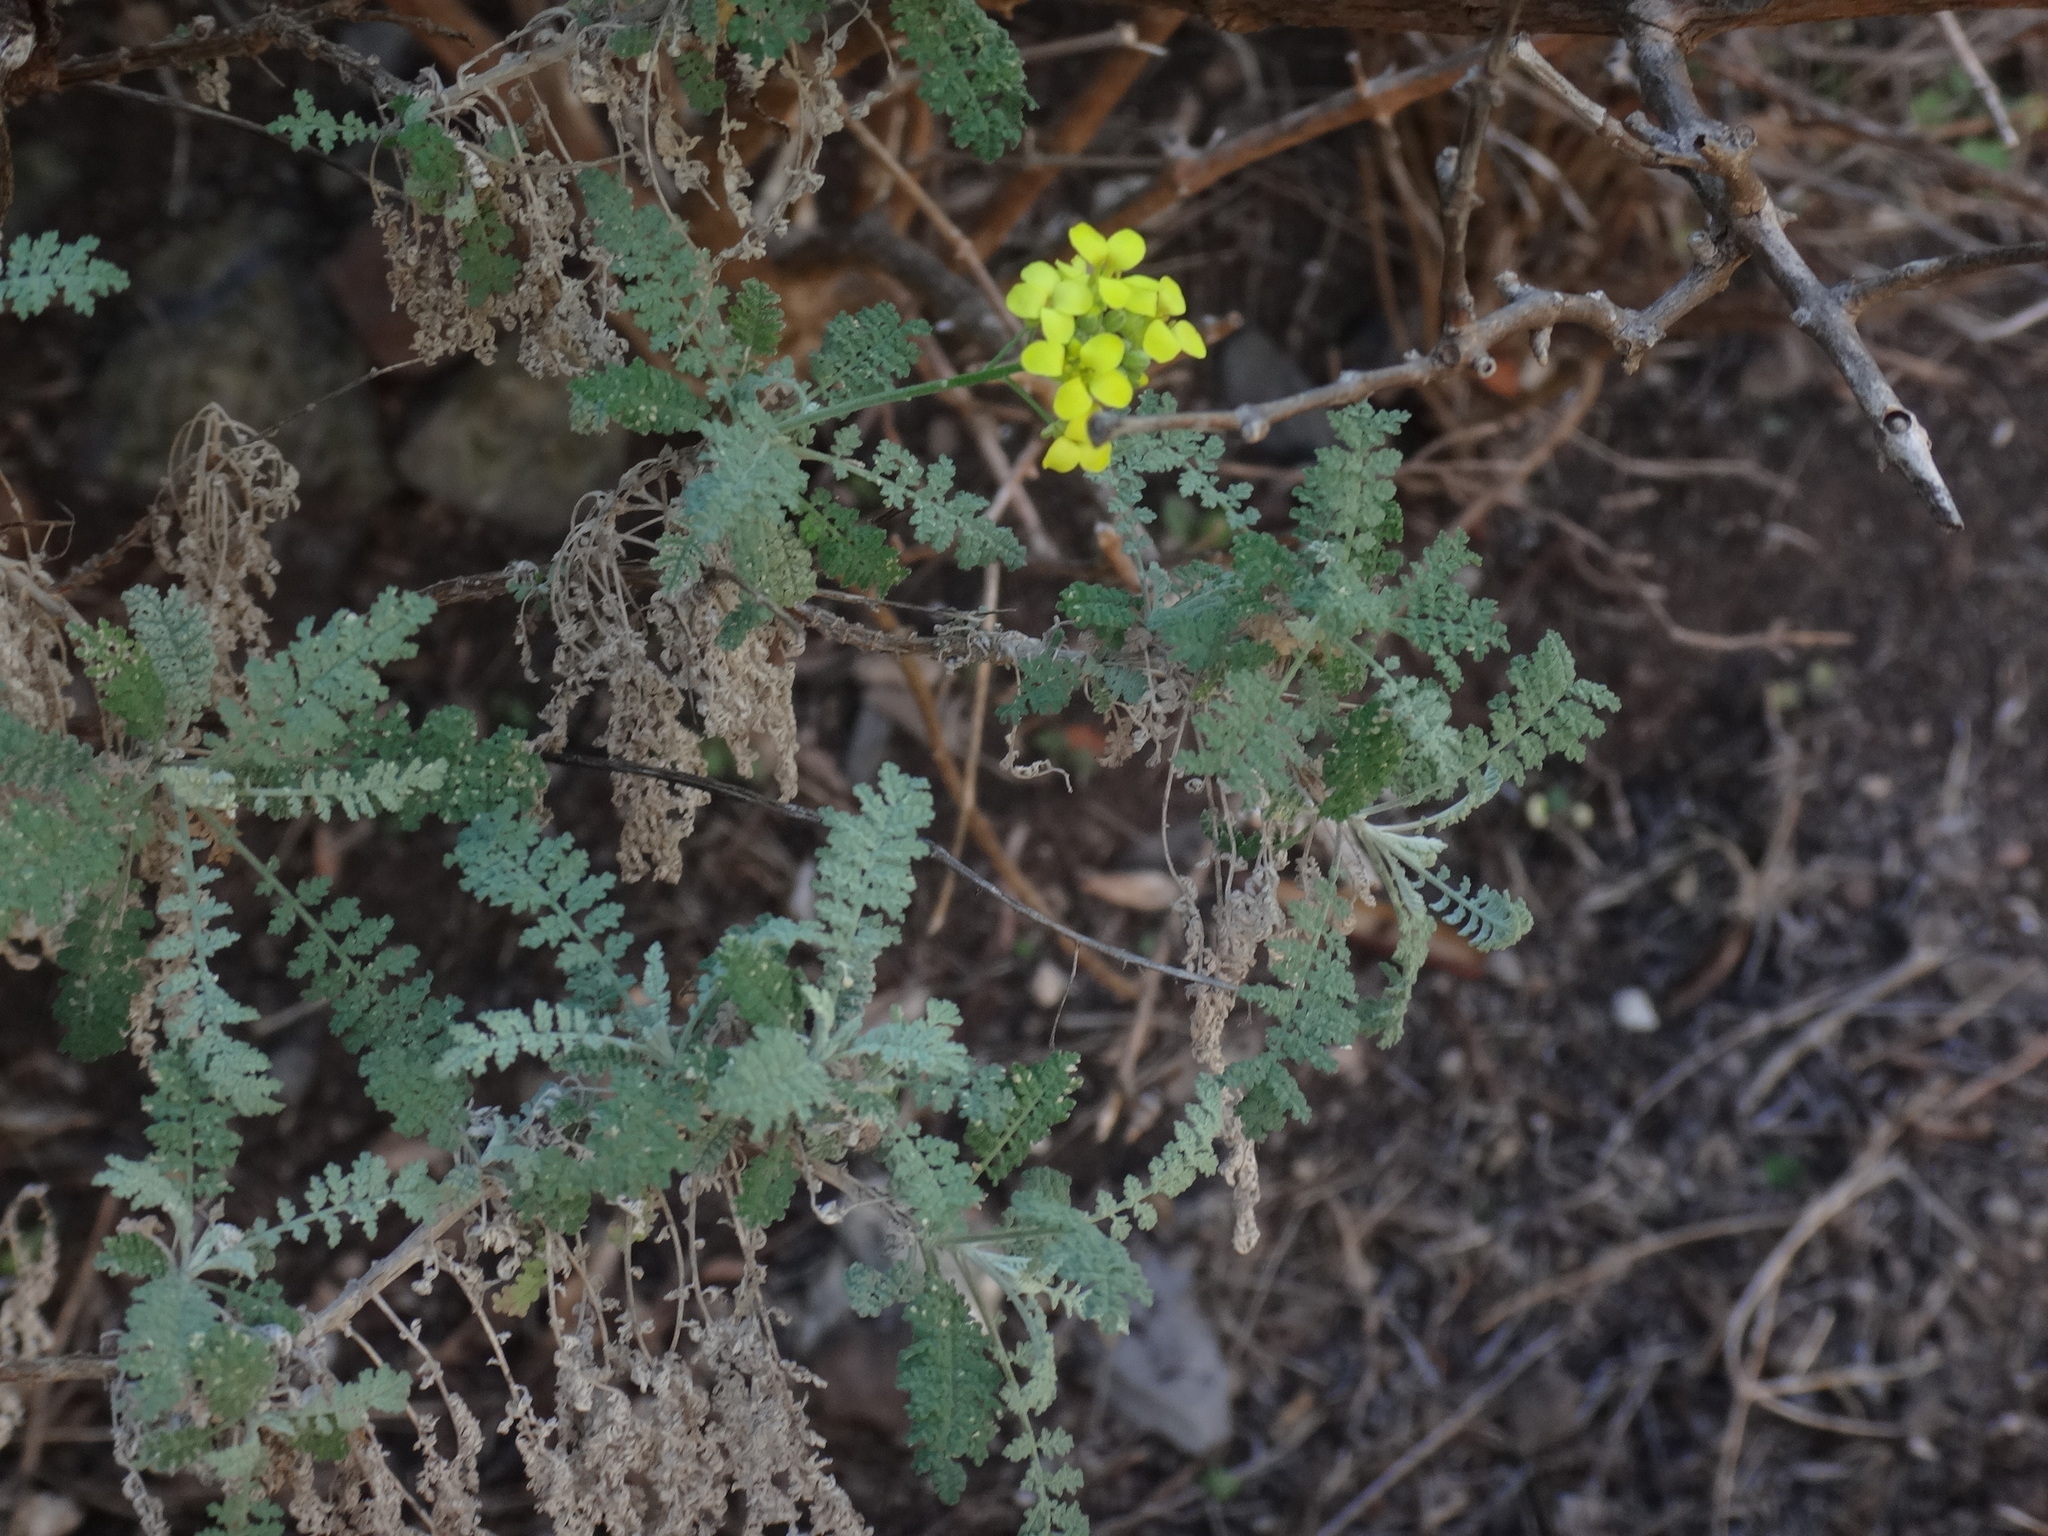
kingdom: Plantae
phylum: Tracheophyta
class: Magnoliopsida
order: Brassicales
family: Brassicaceae
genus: Descurainia
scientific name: Descurainia millefolia
